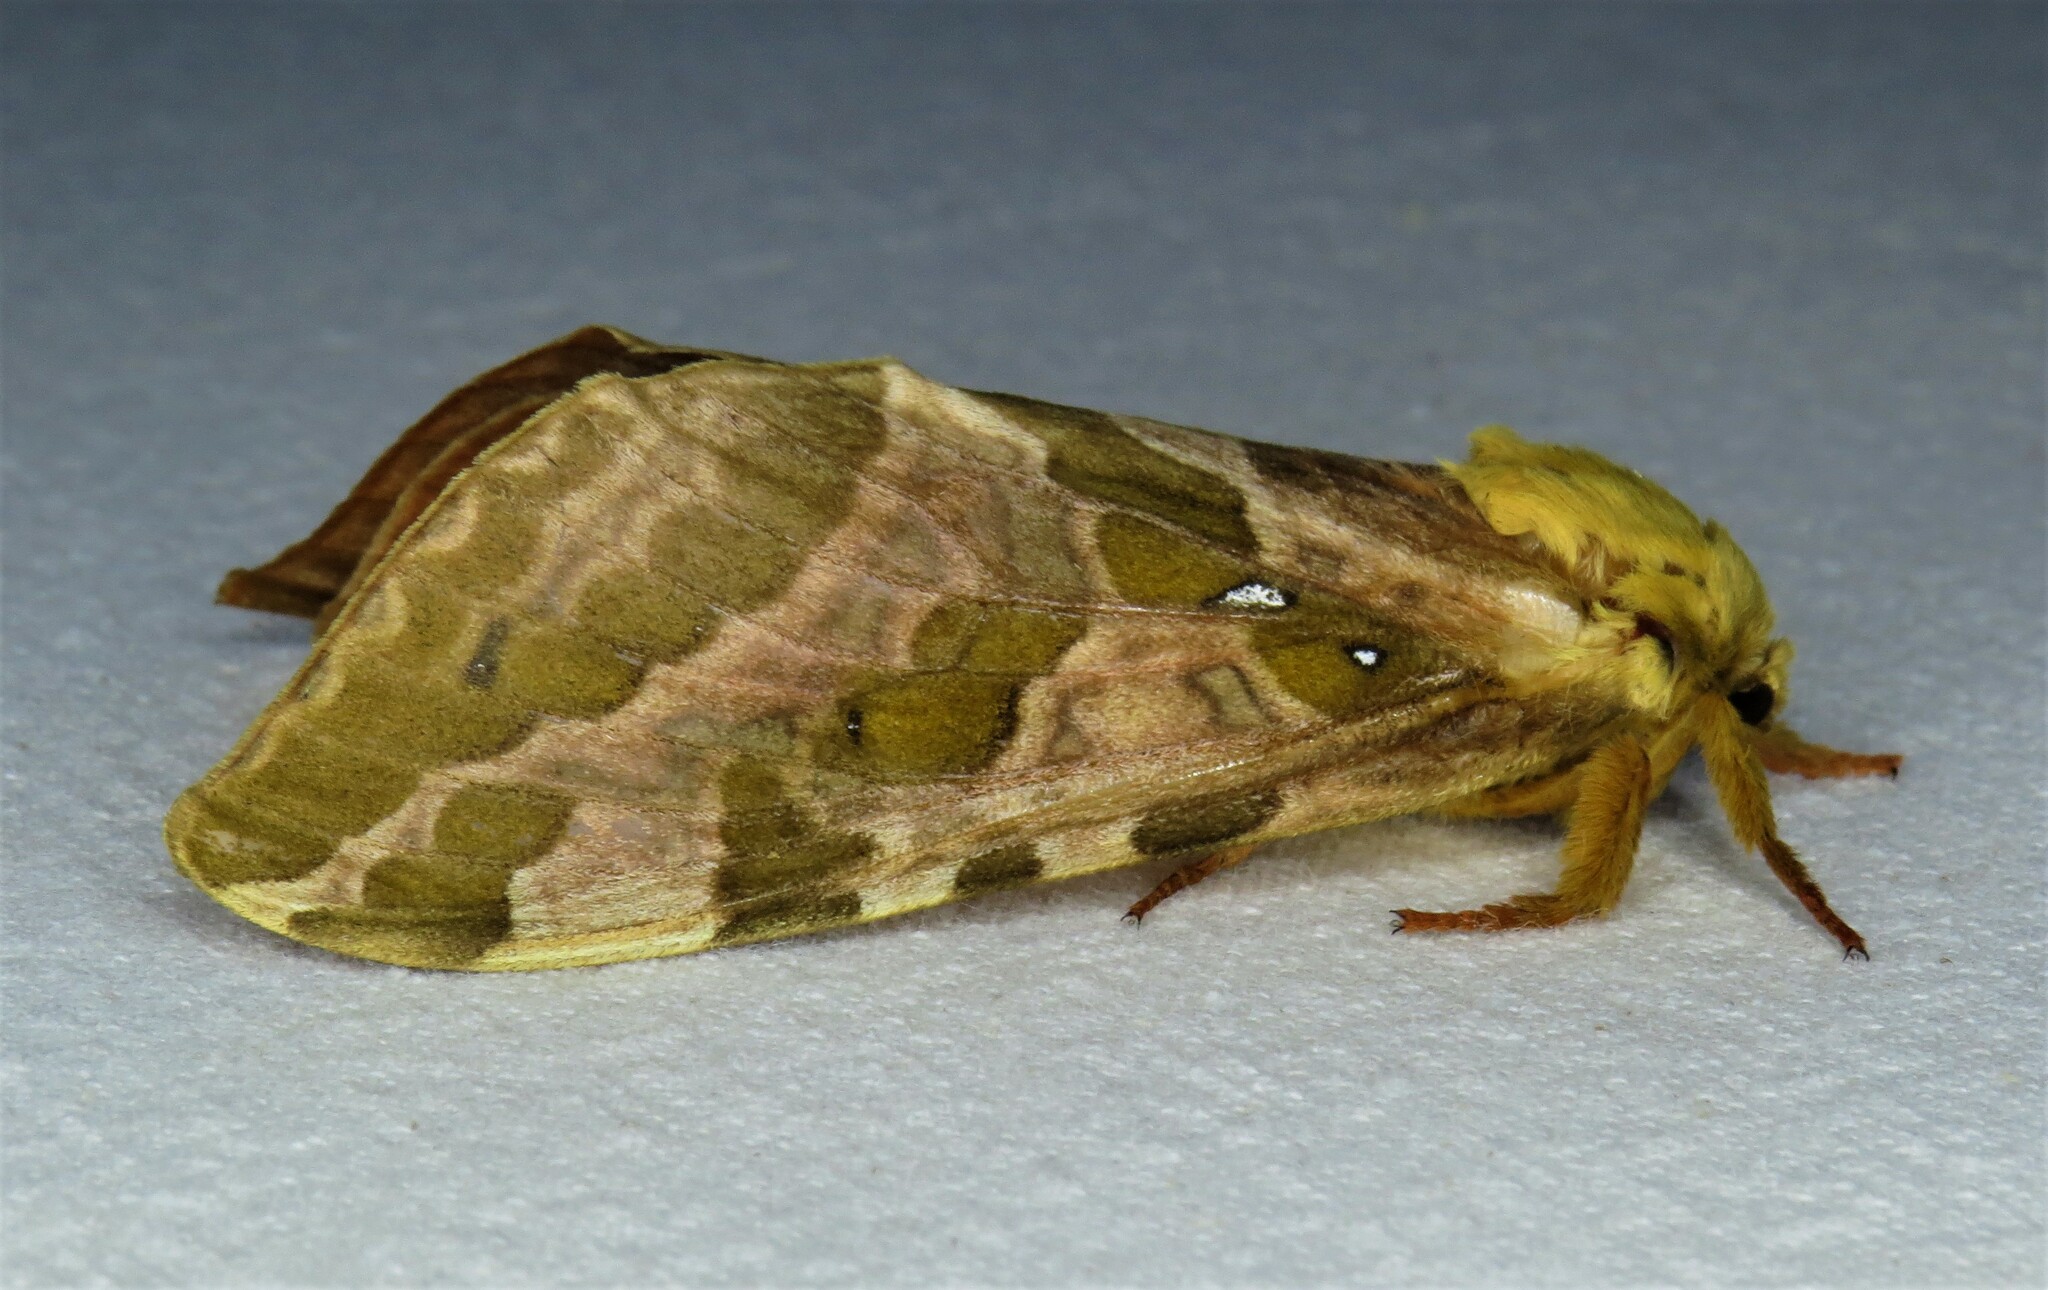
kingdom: Animalia
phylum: Arthropoda
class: Insecta
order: Lepidoptera
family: Hepialidae
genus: Sthenopis
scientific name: Sthenopis purpurascens
